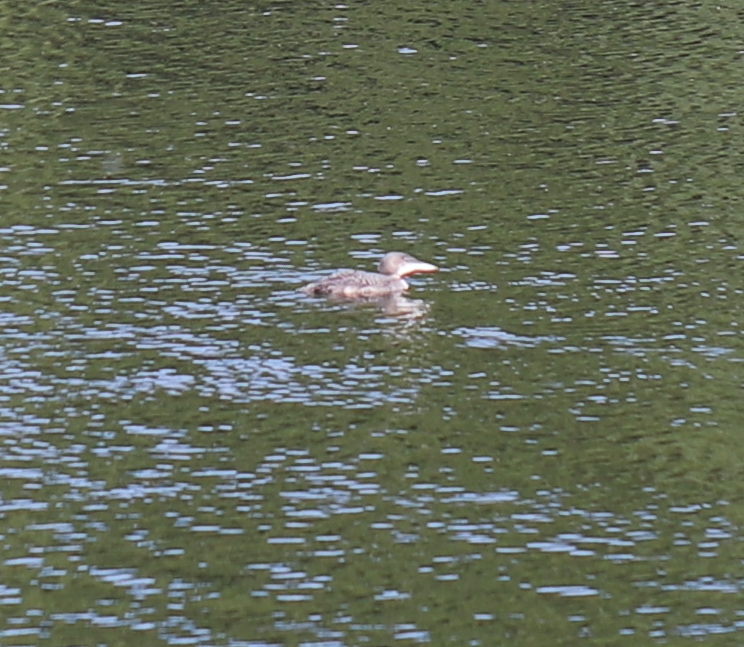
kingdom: Animalia
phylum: Chordata
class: Aves
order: Gaviiformes
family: Gaviidae
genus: Gavia
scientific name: Gavia immer
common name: Common loon
